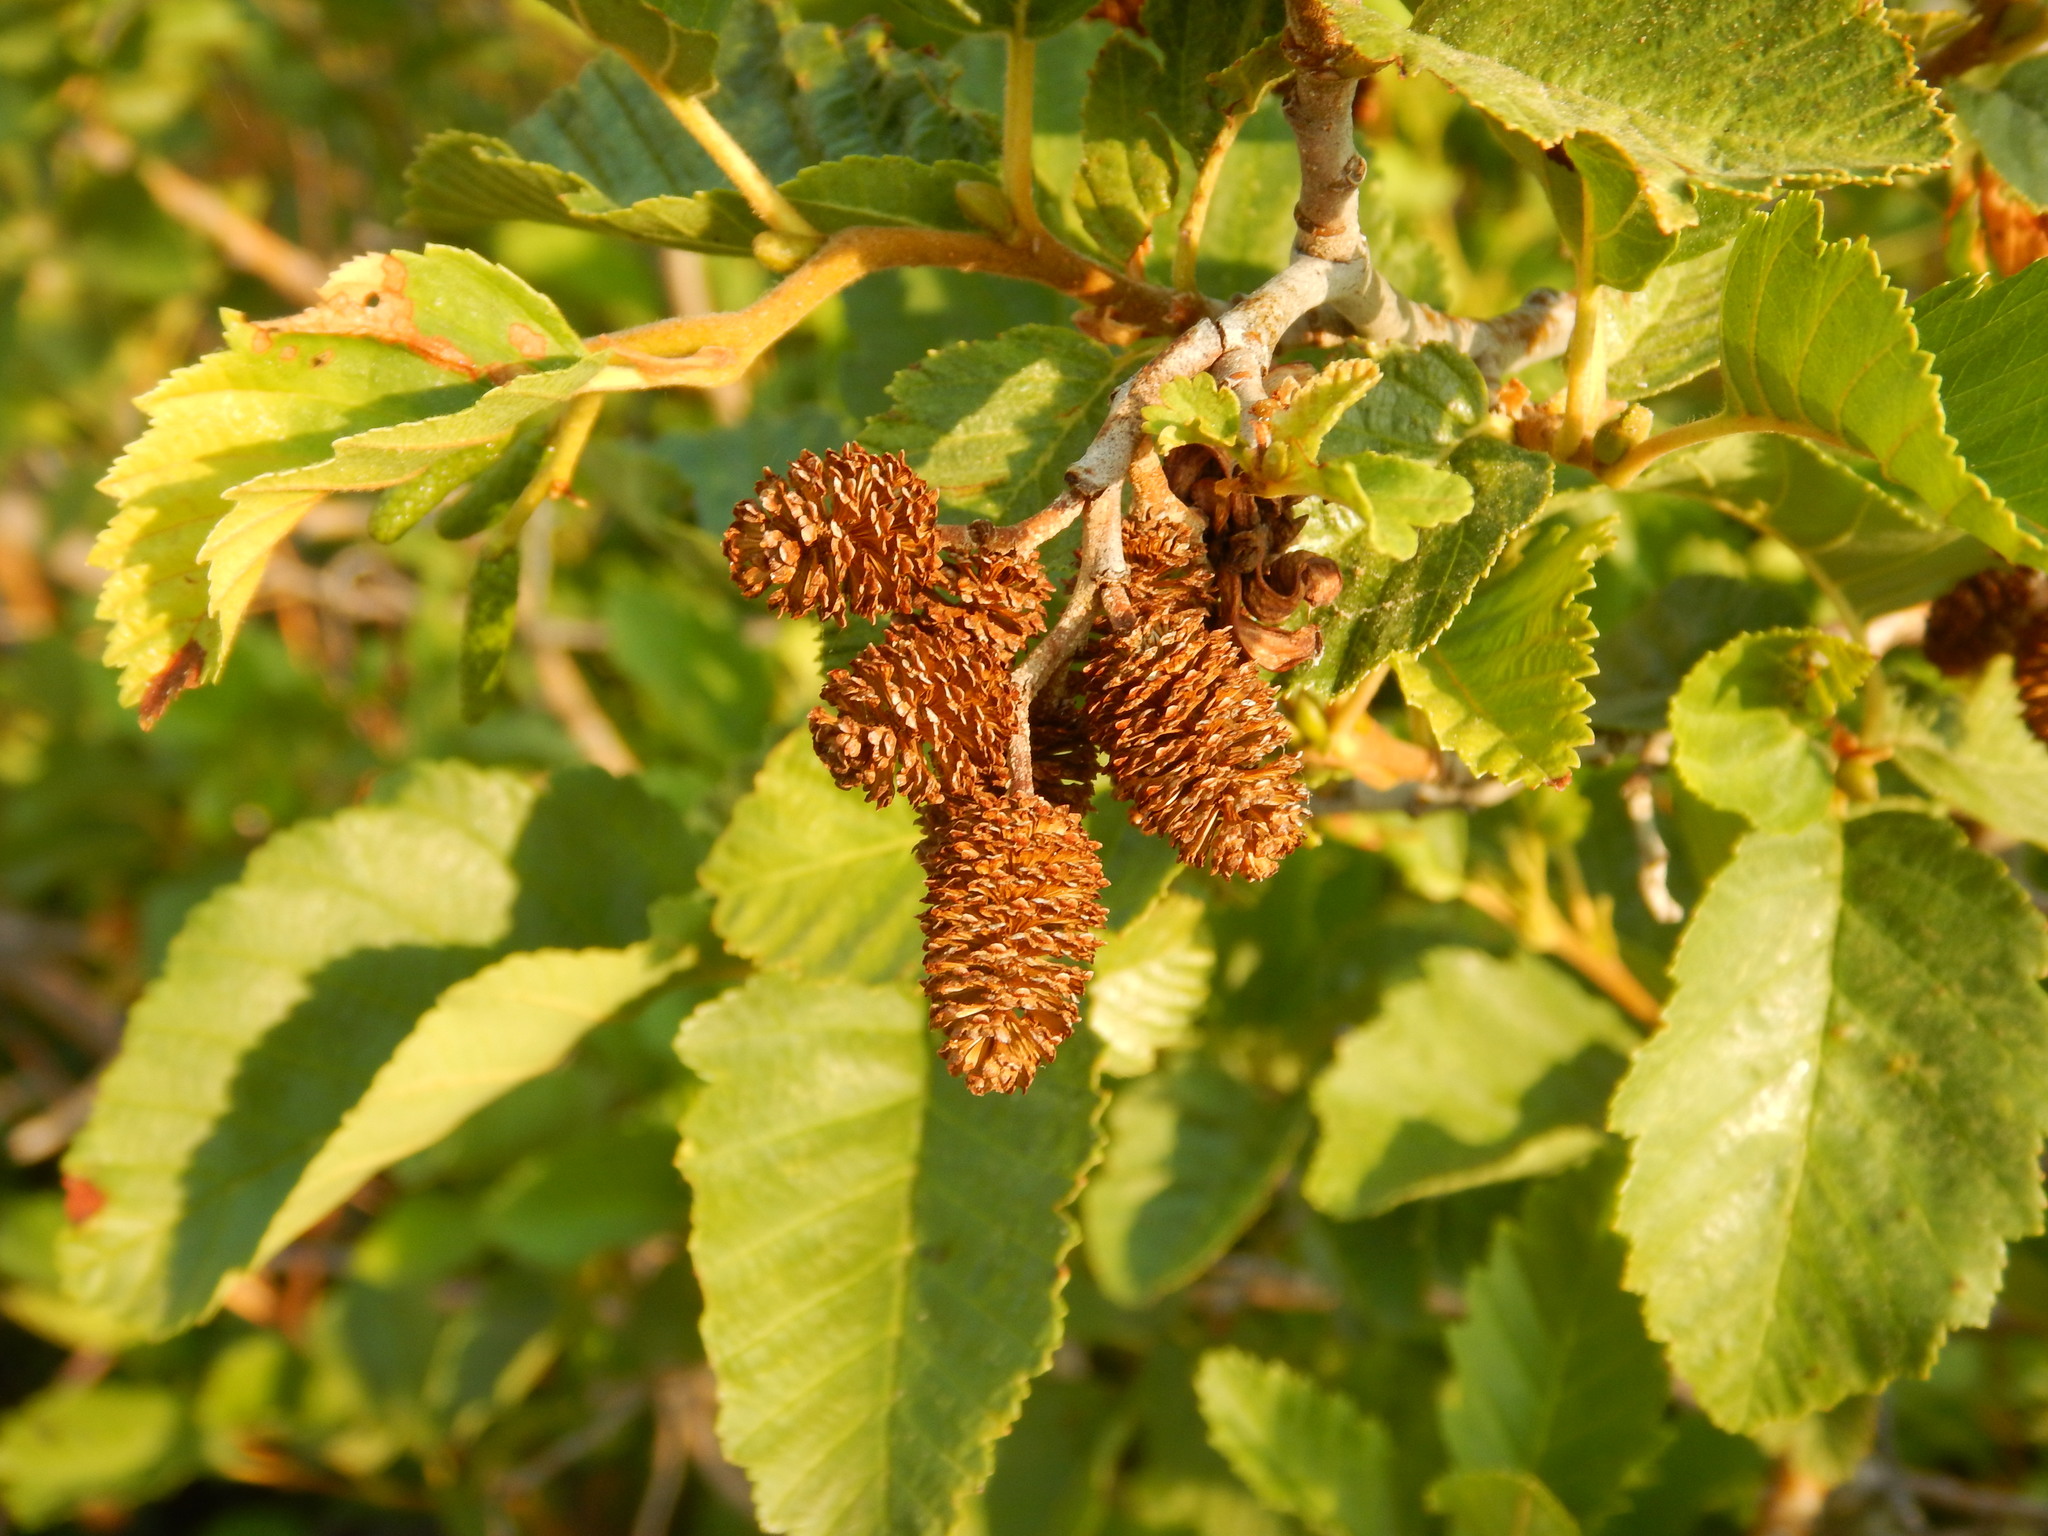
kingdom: Plantae
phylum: Tracheophyta
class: Magnoliopsida
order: Fagales
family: Betulaceae
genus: Alnus
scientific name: Alnus incana
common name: Grey alder
